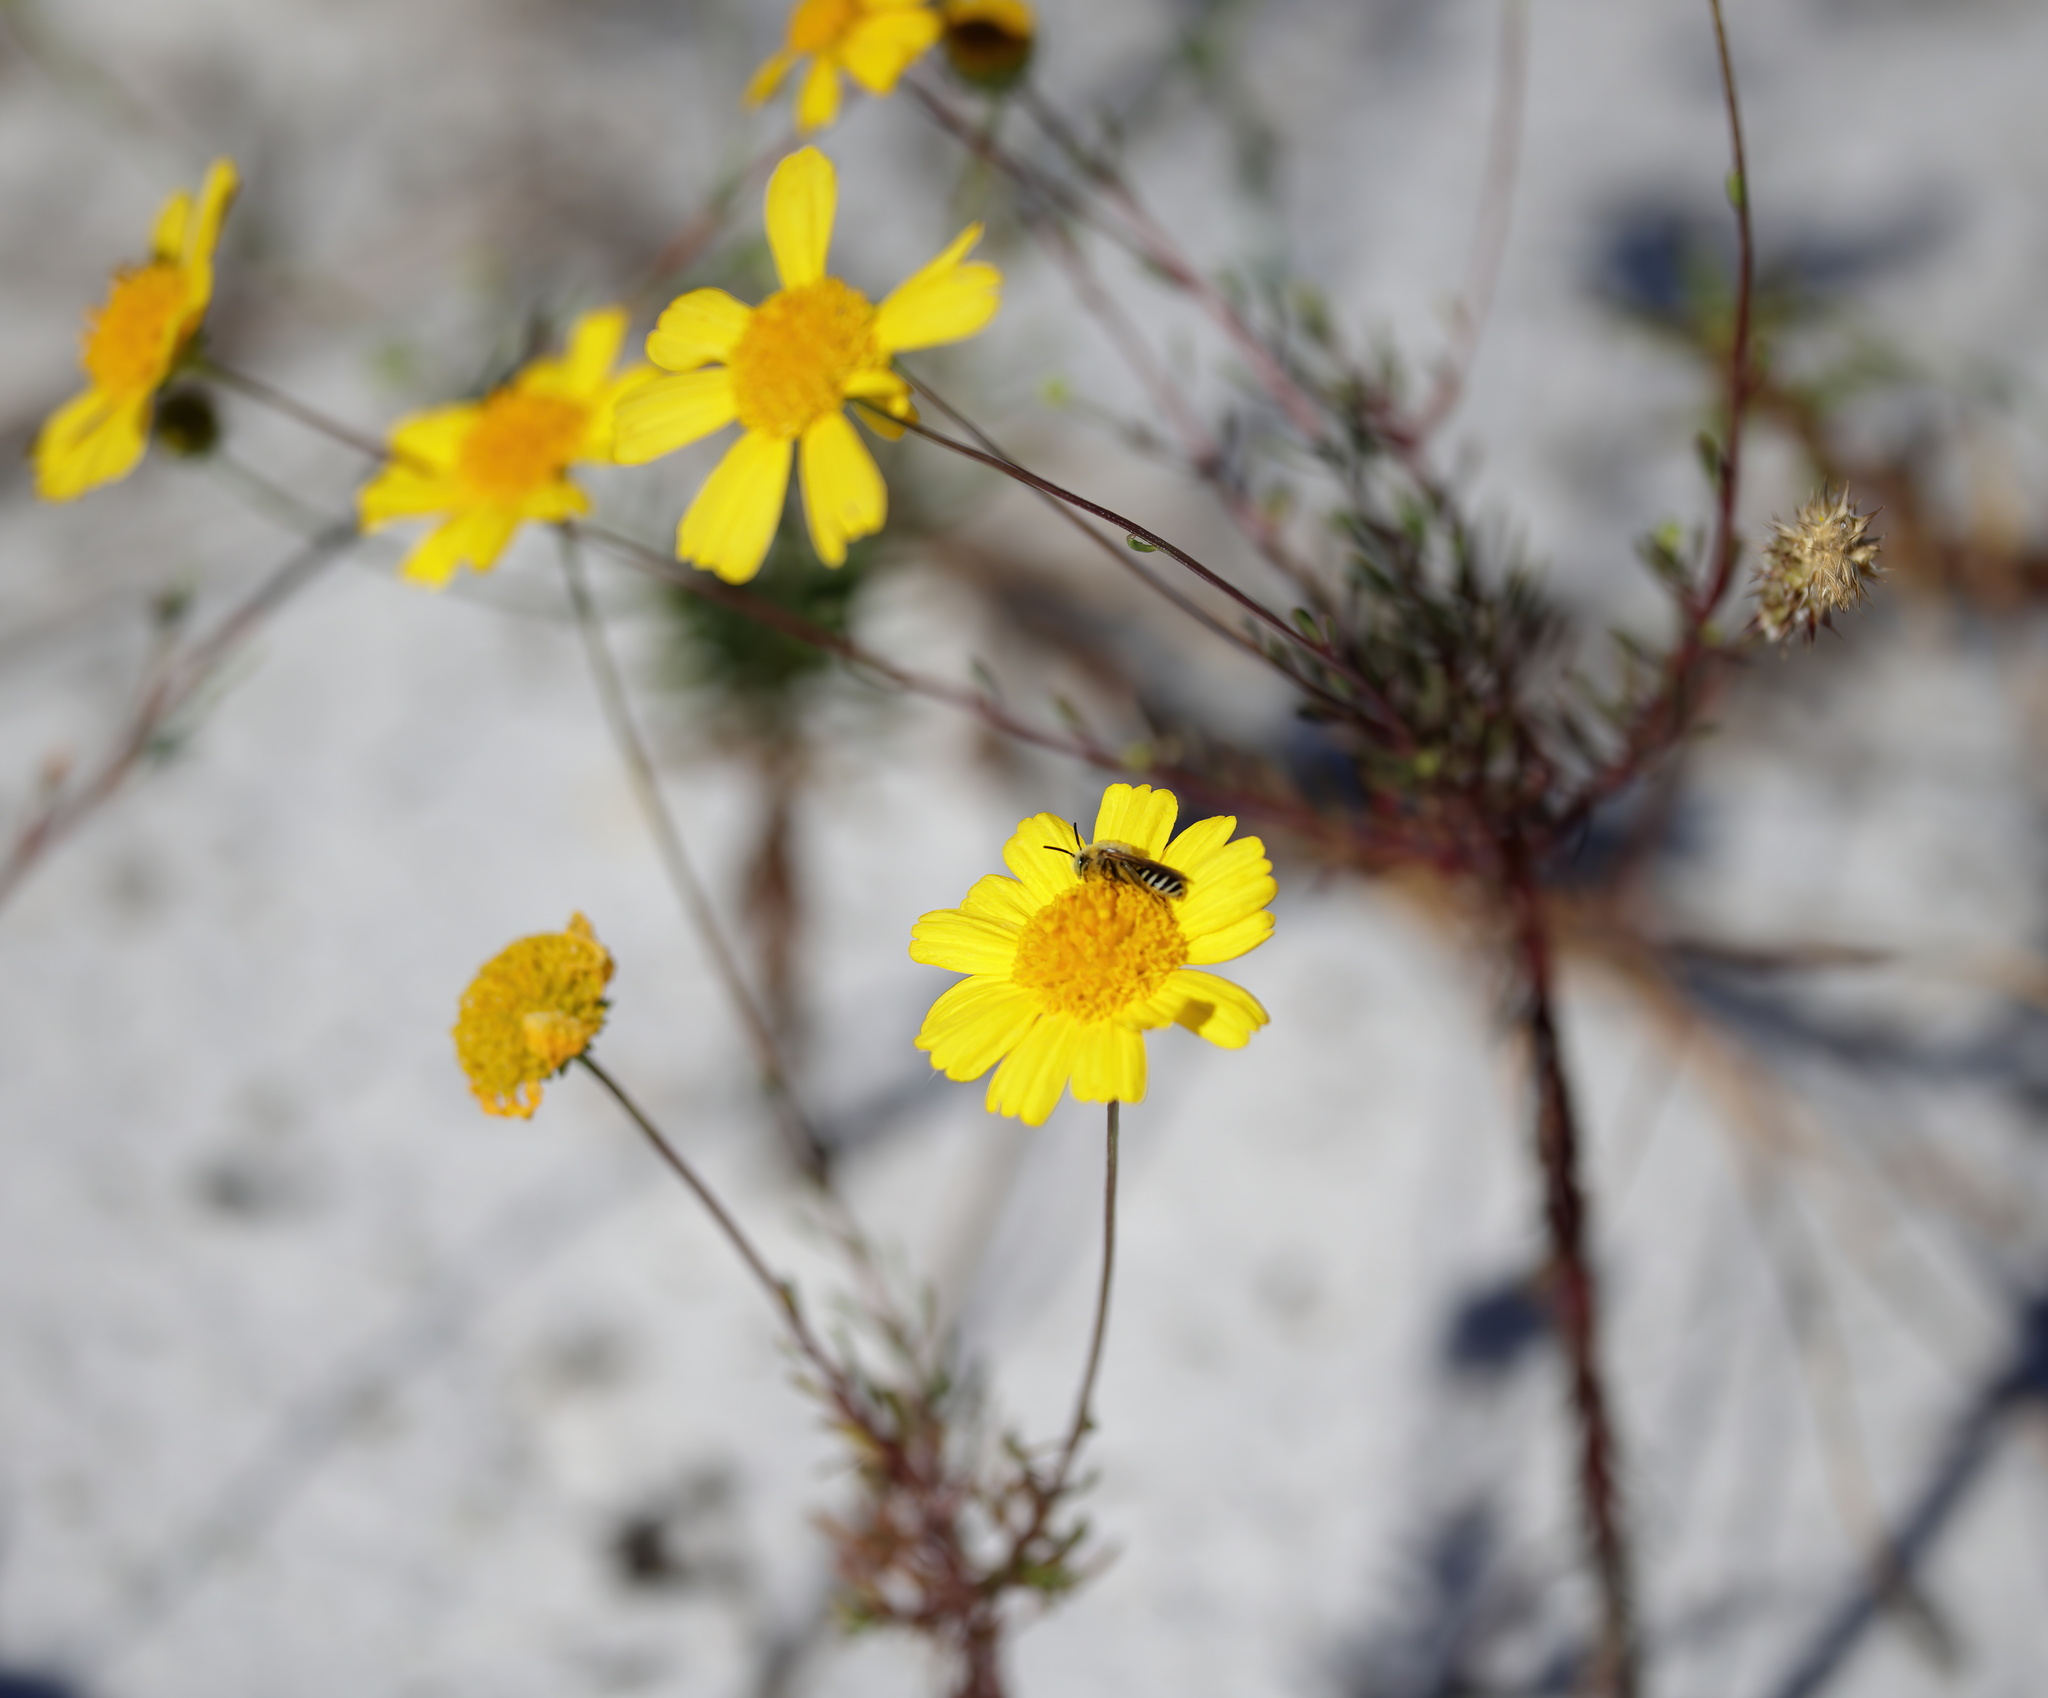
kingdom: Plantae
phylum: Tracheophyta
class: Magnoliopsida
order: Asterales
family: Asteraceae
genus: Balduina
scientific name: Balduina angustifolia
